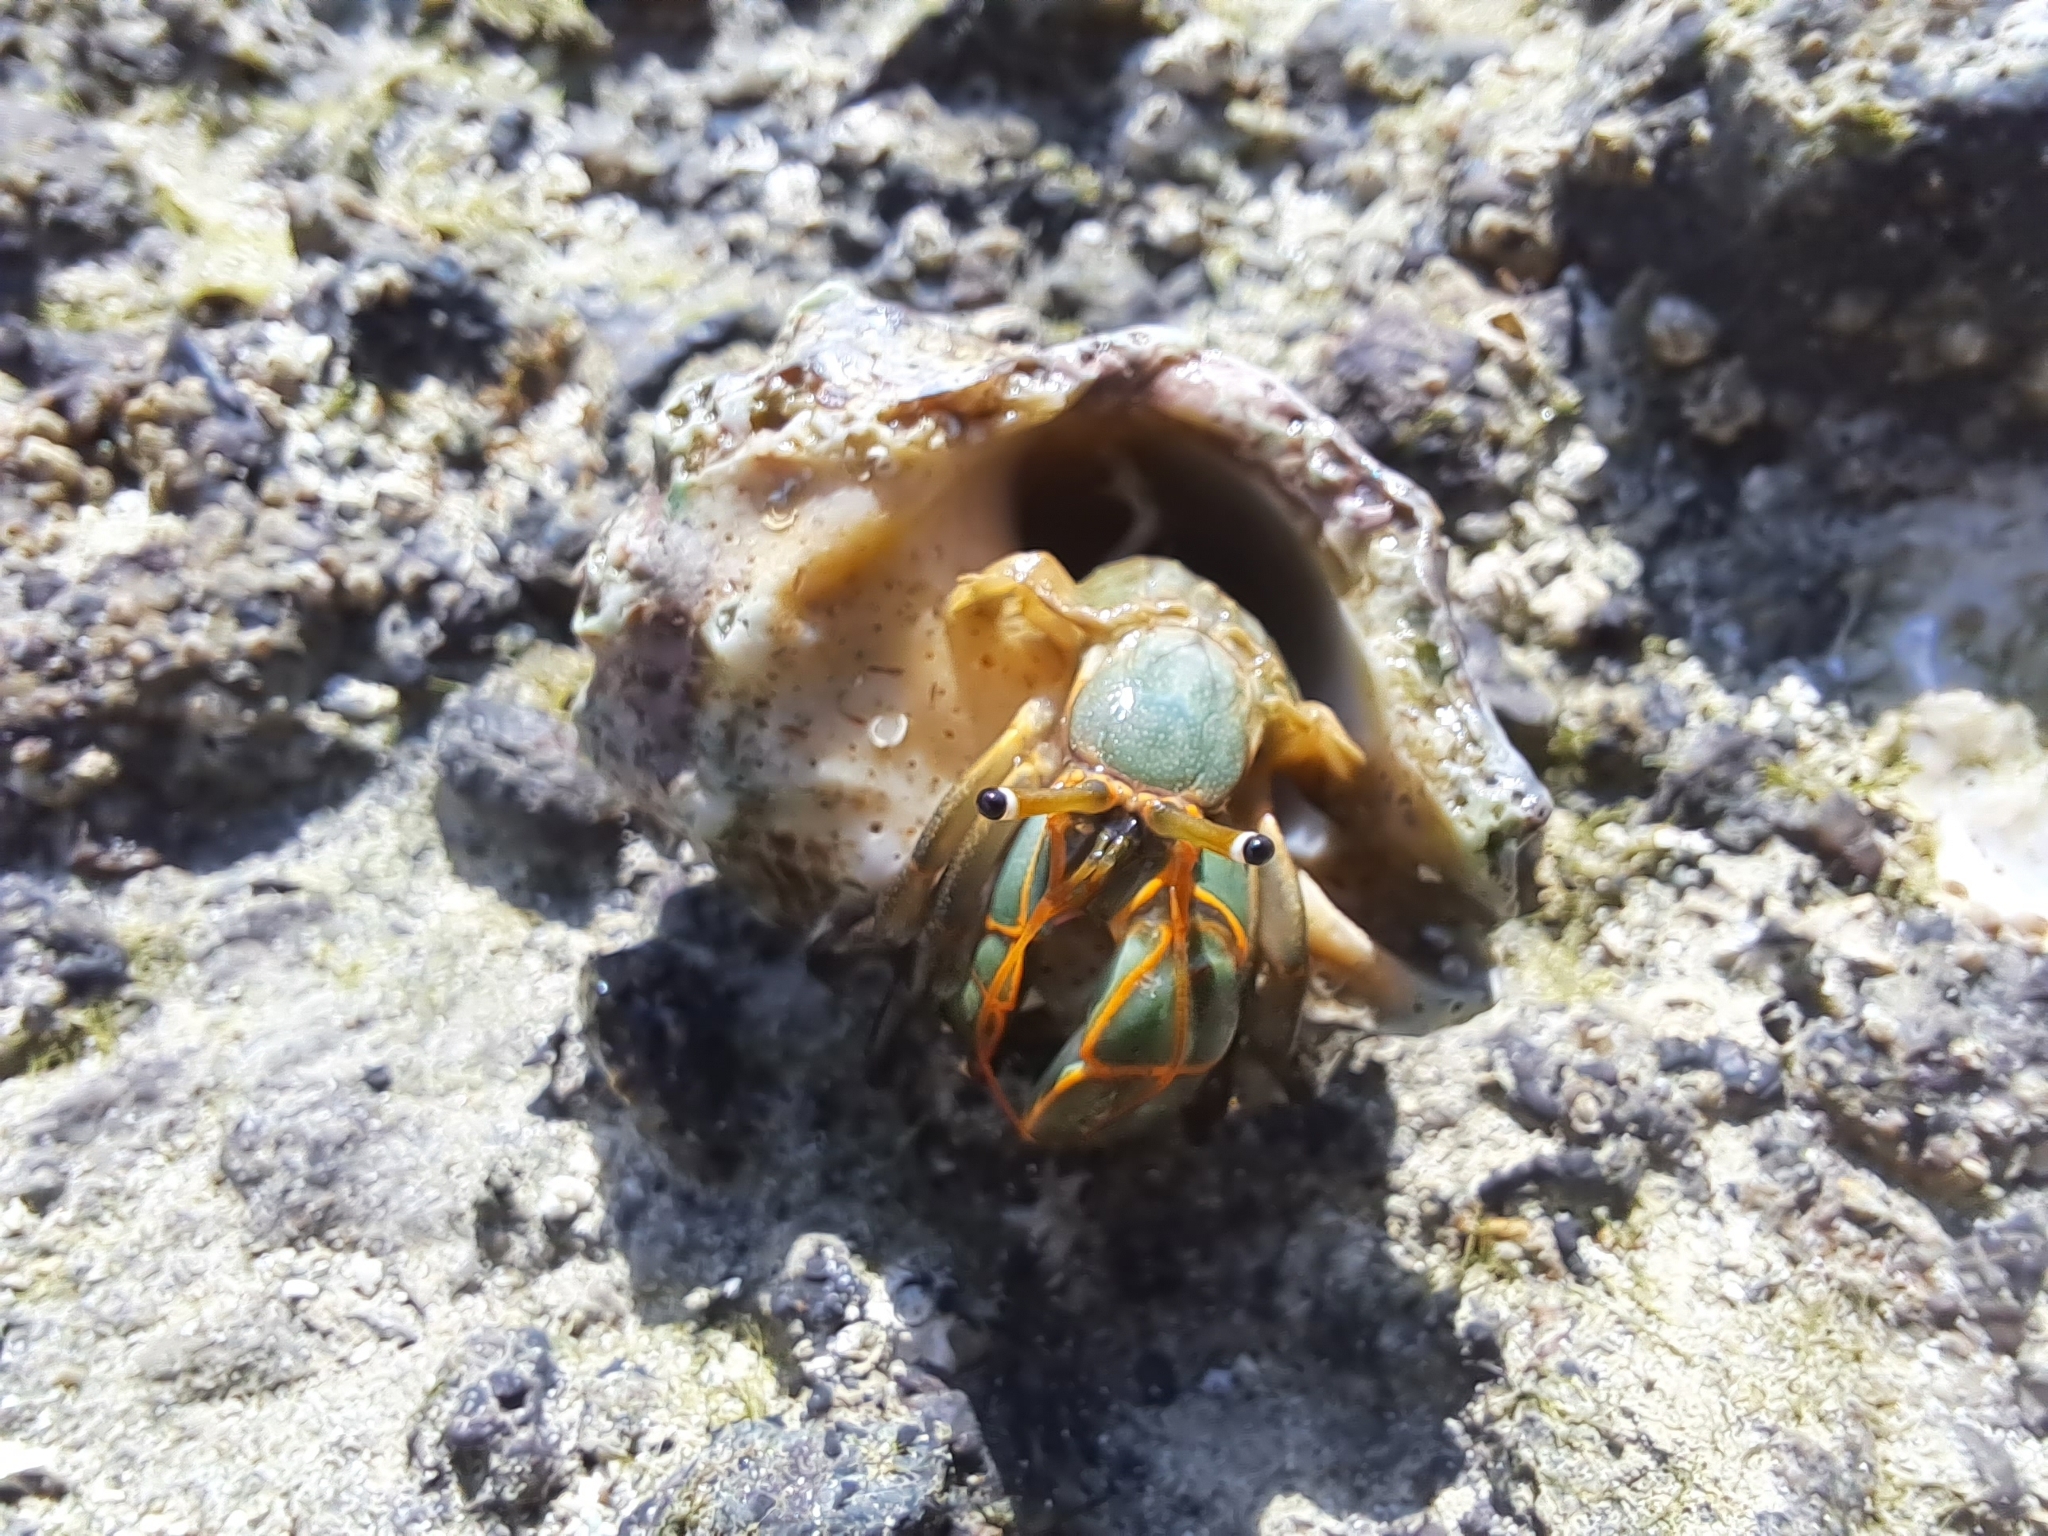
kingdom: Animalia
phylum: Arthropoda
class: Malacostraca
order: Decapoda
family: Diogenidae
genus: Calcinus
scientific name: Calcinus obscurus
